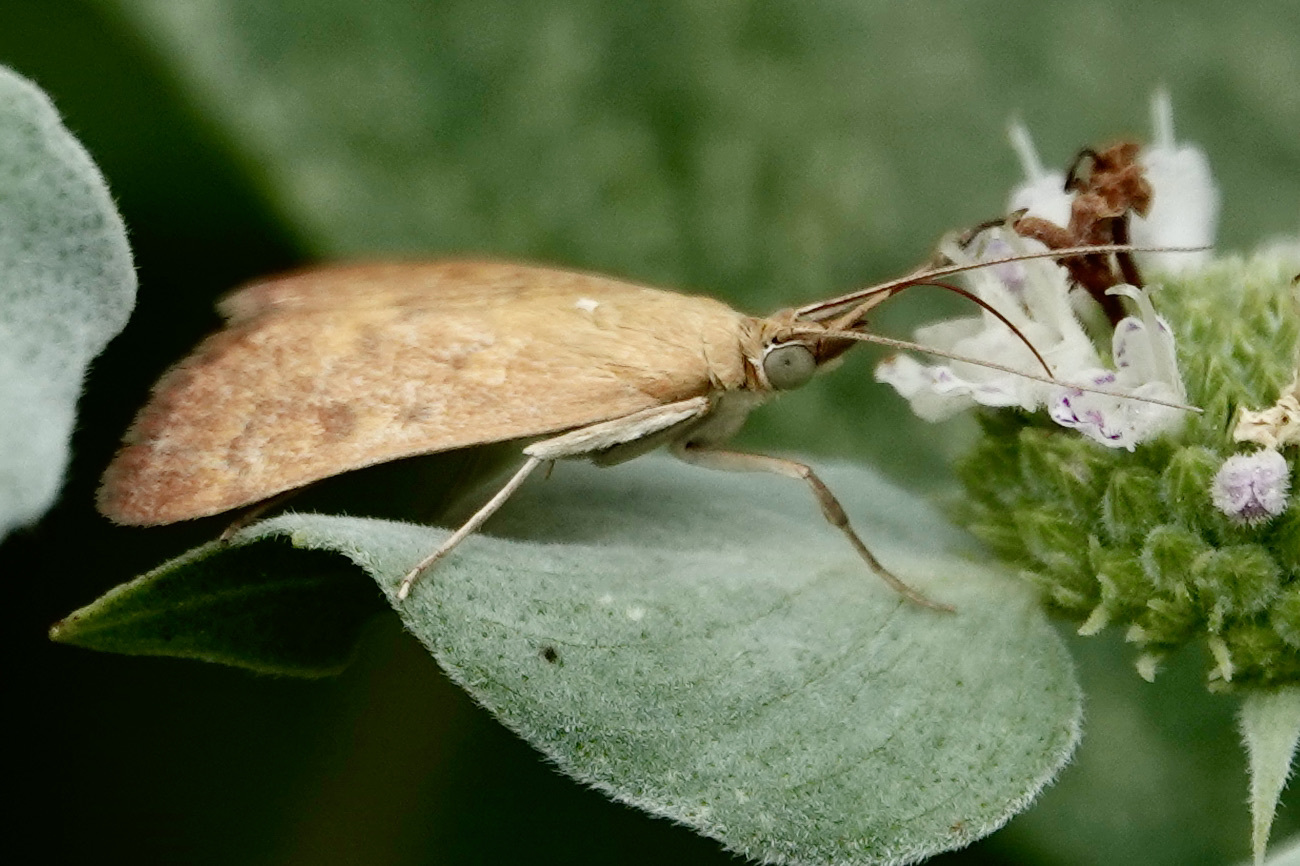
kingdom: Animalia
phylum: Arthropoda
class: Insecta
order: Lepidoptera
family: Crambidae
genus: Achyra
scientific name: Achyra rantalis
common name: Garden webworm
